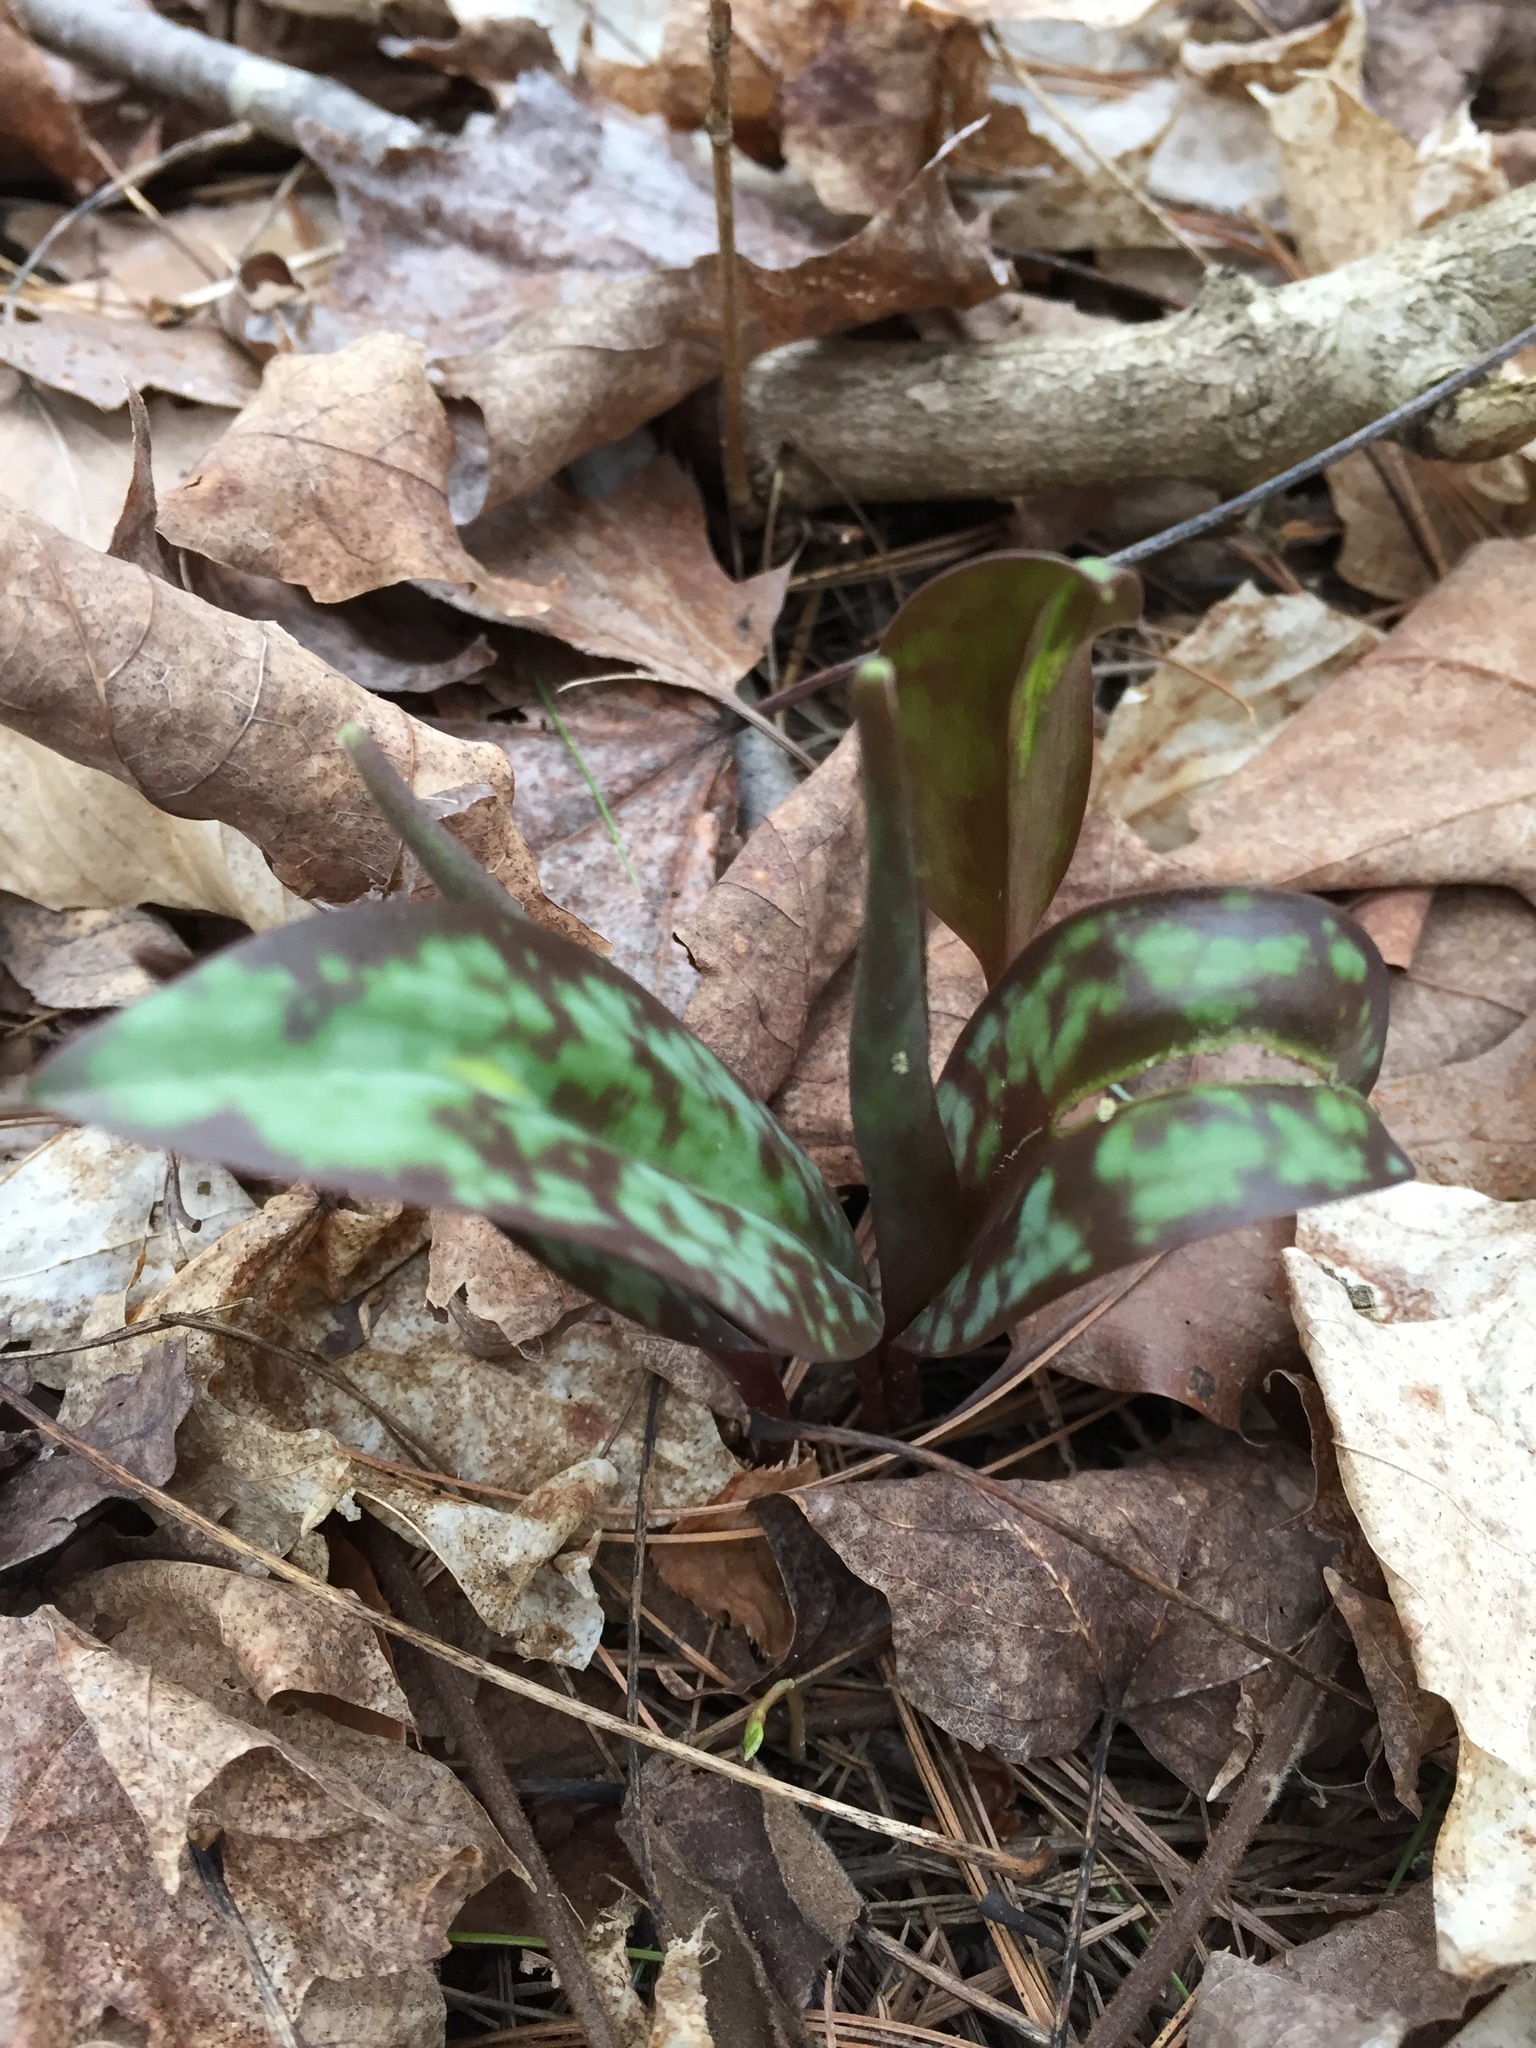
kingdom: Plantae
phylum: Tracheophyta
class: Liliopsida
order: Liliales
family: Liliaceae
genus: Erythronium
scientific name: Erythronium americanum
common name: Yellow adder's-tongue
